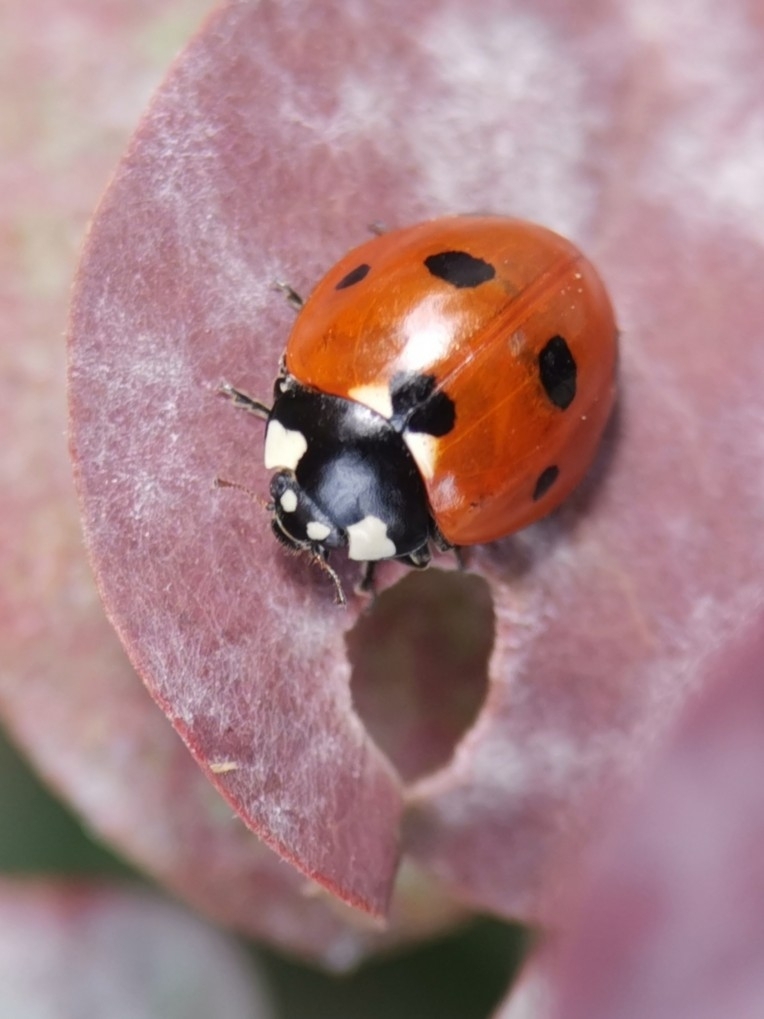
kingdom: Animalia
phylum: Arthropoda
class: Insecta
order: Coleoptera
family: Coccinellidae
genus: Coccinella
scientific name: Coccinella septempunctata
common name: Sevenspotted lady beetle
